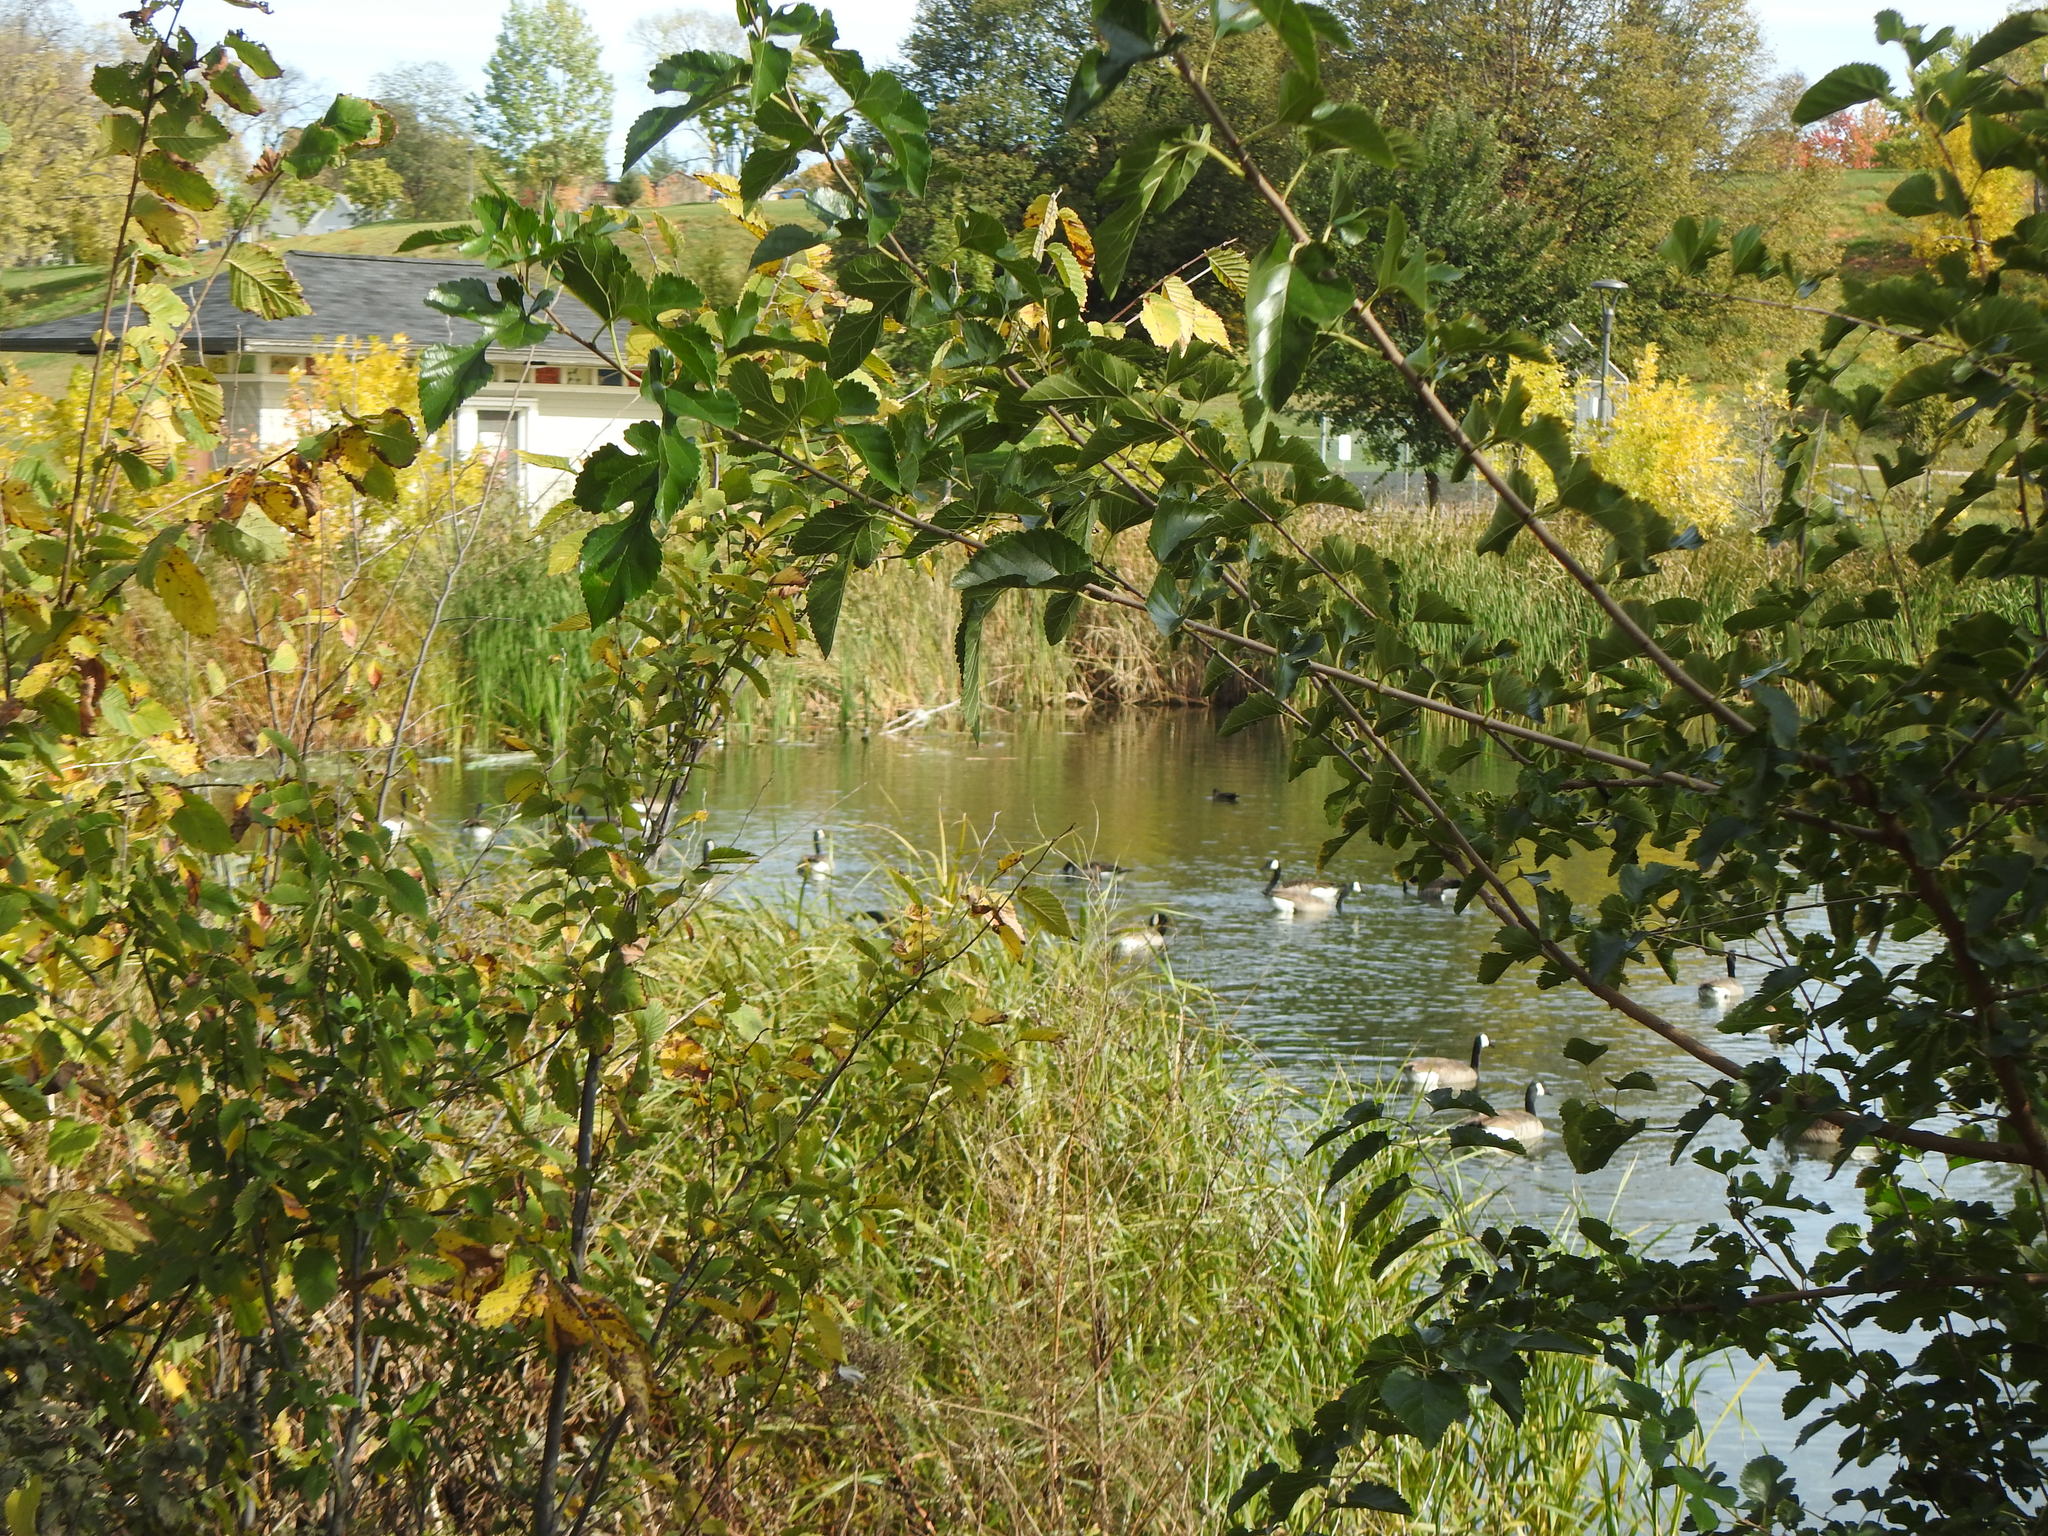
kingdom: Animalia
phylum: Chordata
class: Aves
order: Anseriformes
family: Anatidae
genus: Branta
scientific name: Branta canadensis
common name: Canada goose
